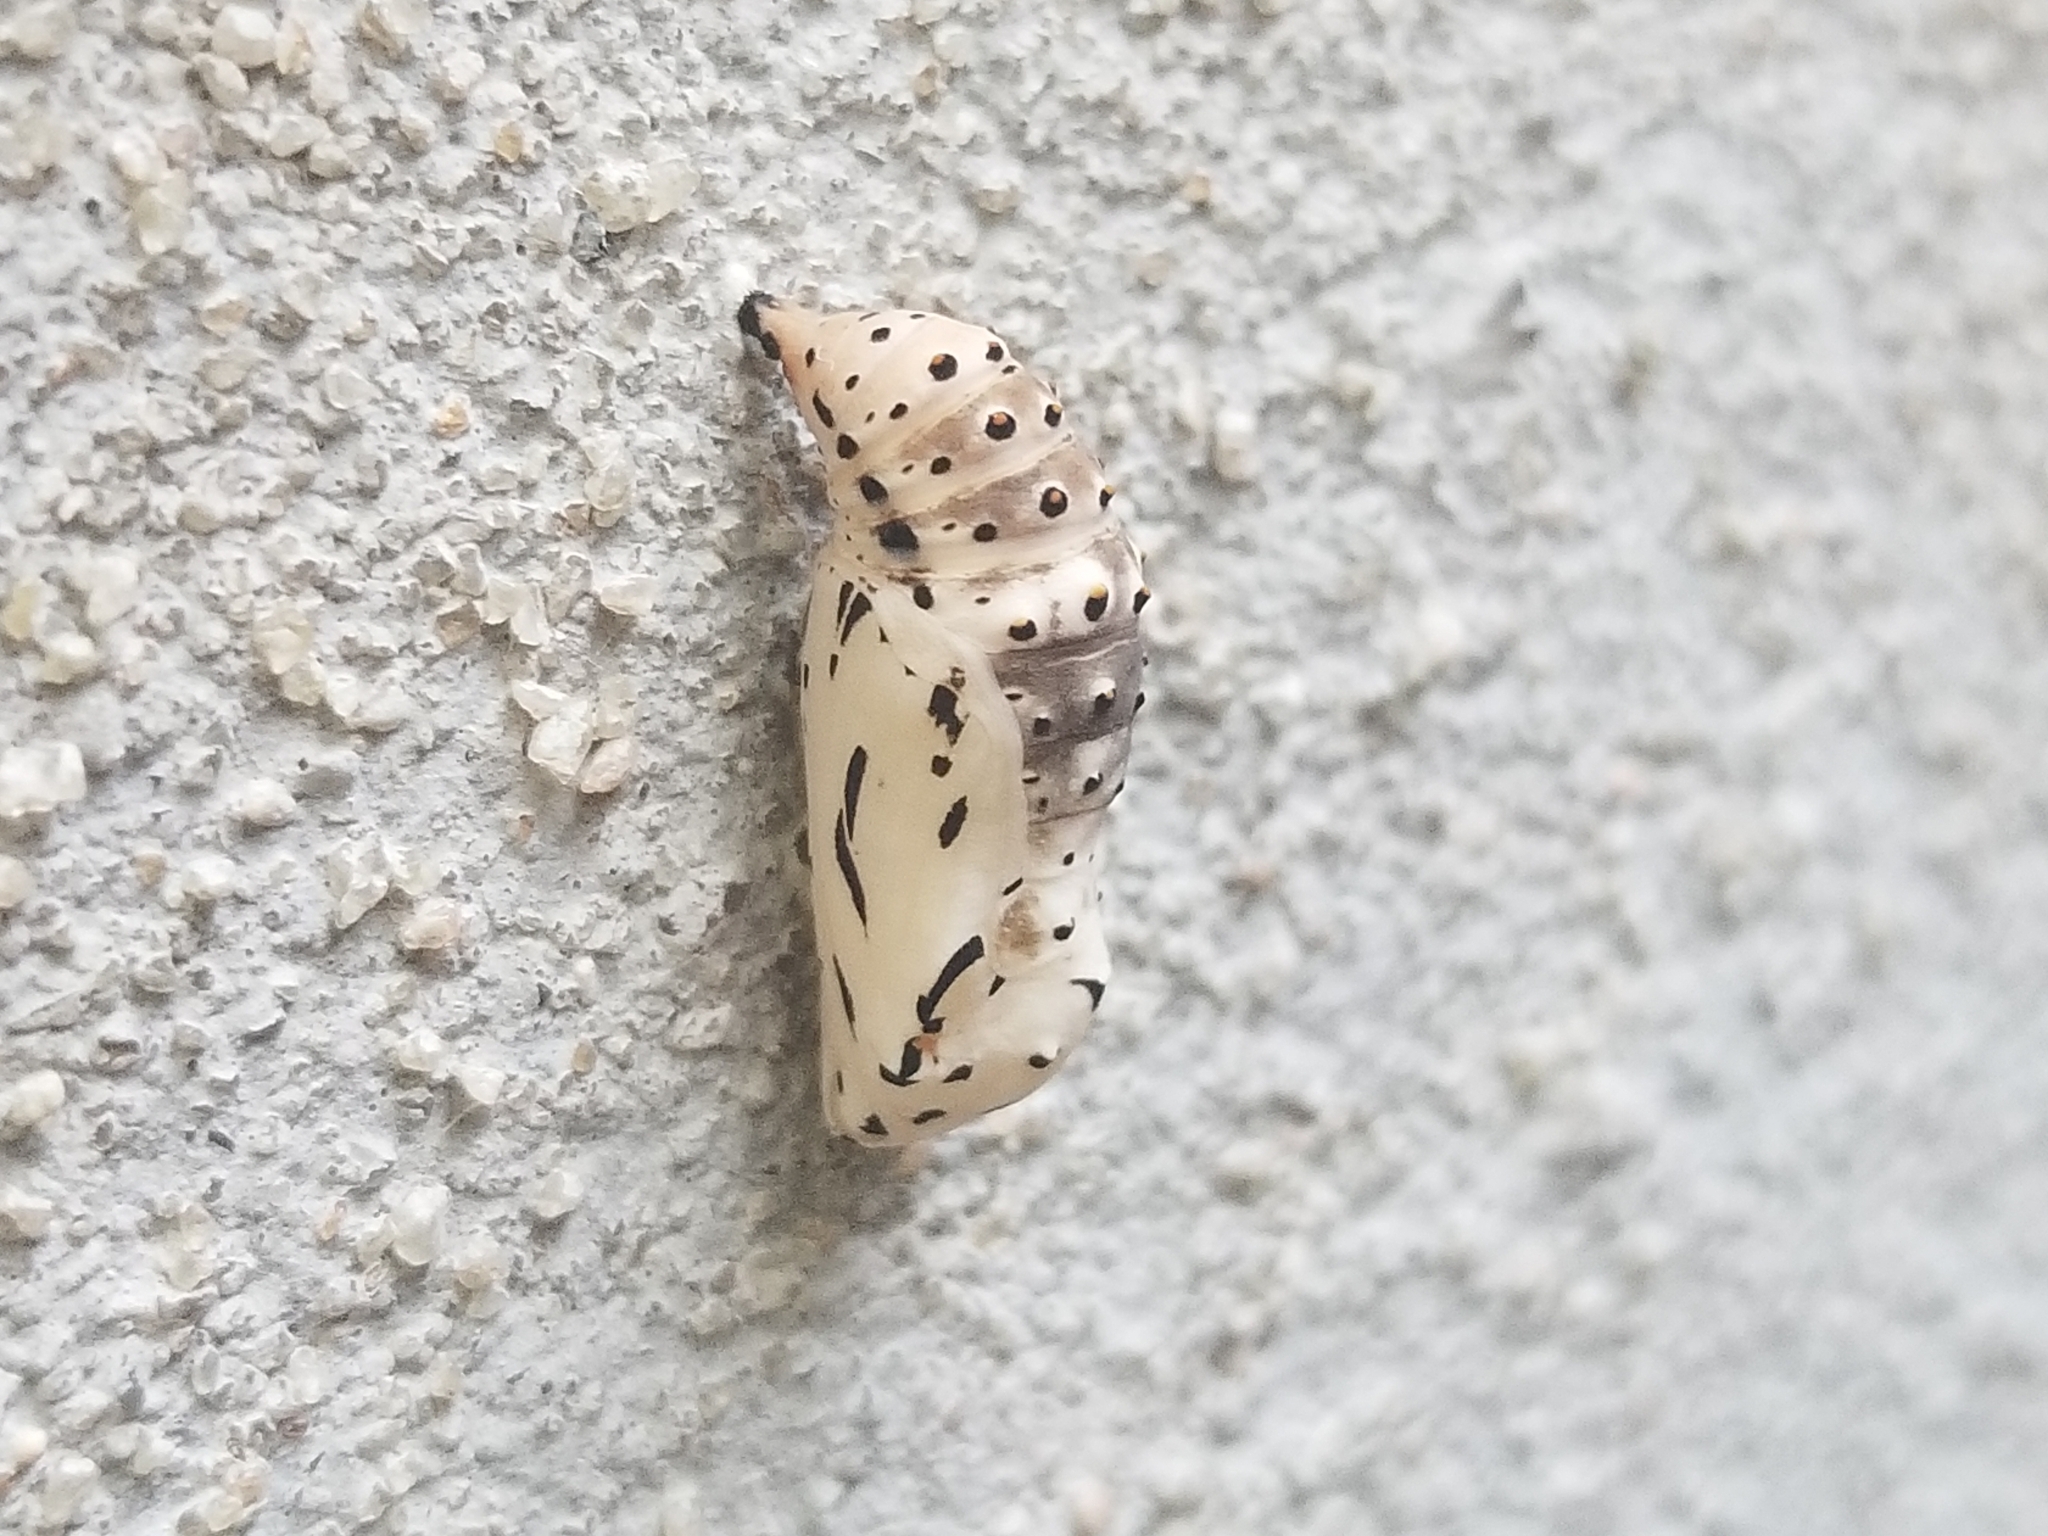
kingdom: Animalia
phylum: Arthropoda
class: Insecta
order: Lepidoptera
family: Nymphalidae
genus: Chlosyne
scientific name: Chlosyne lacinia
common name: Bordered patch
